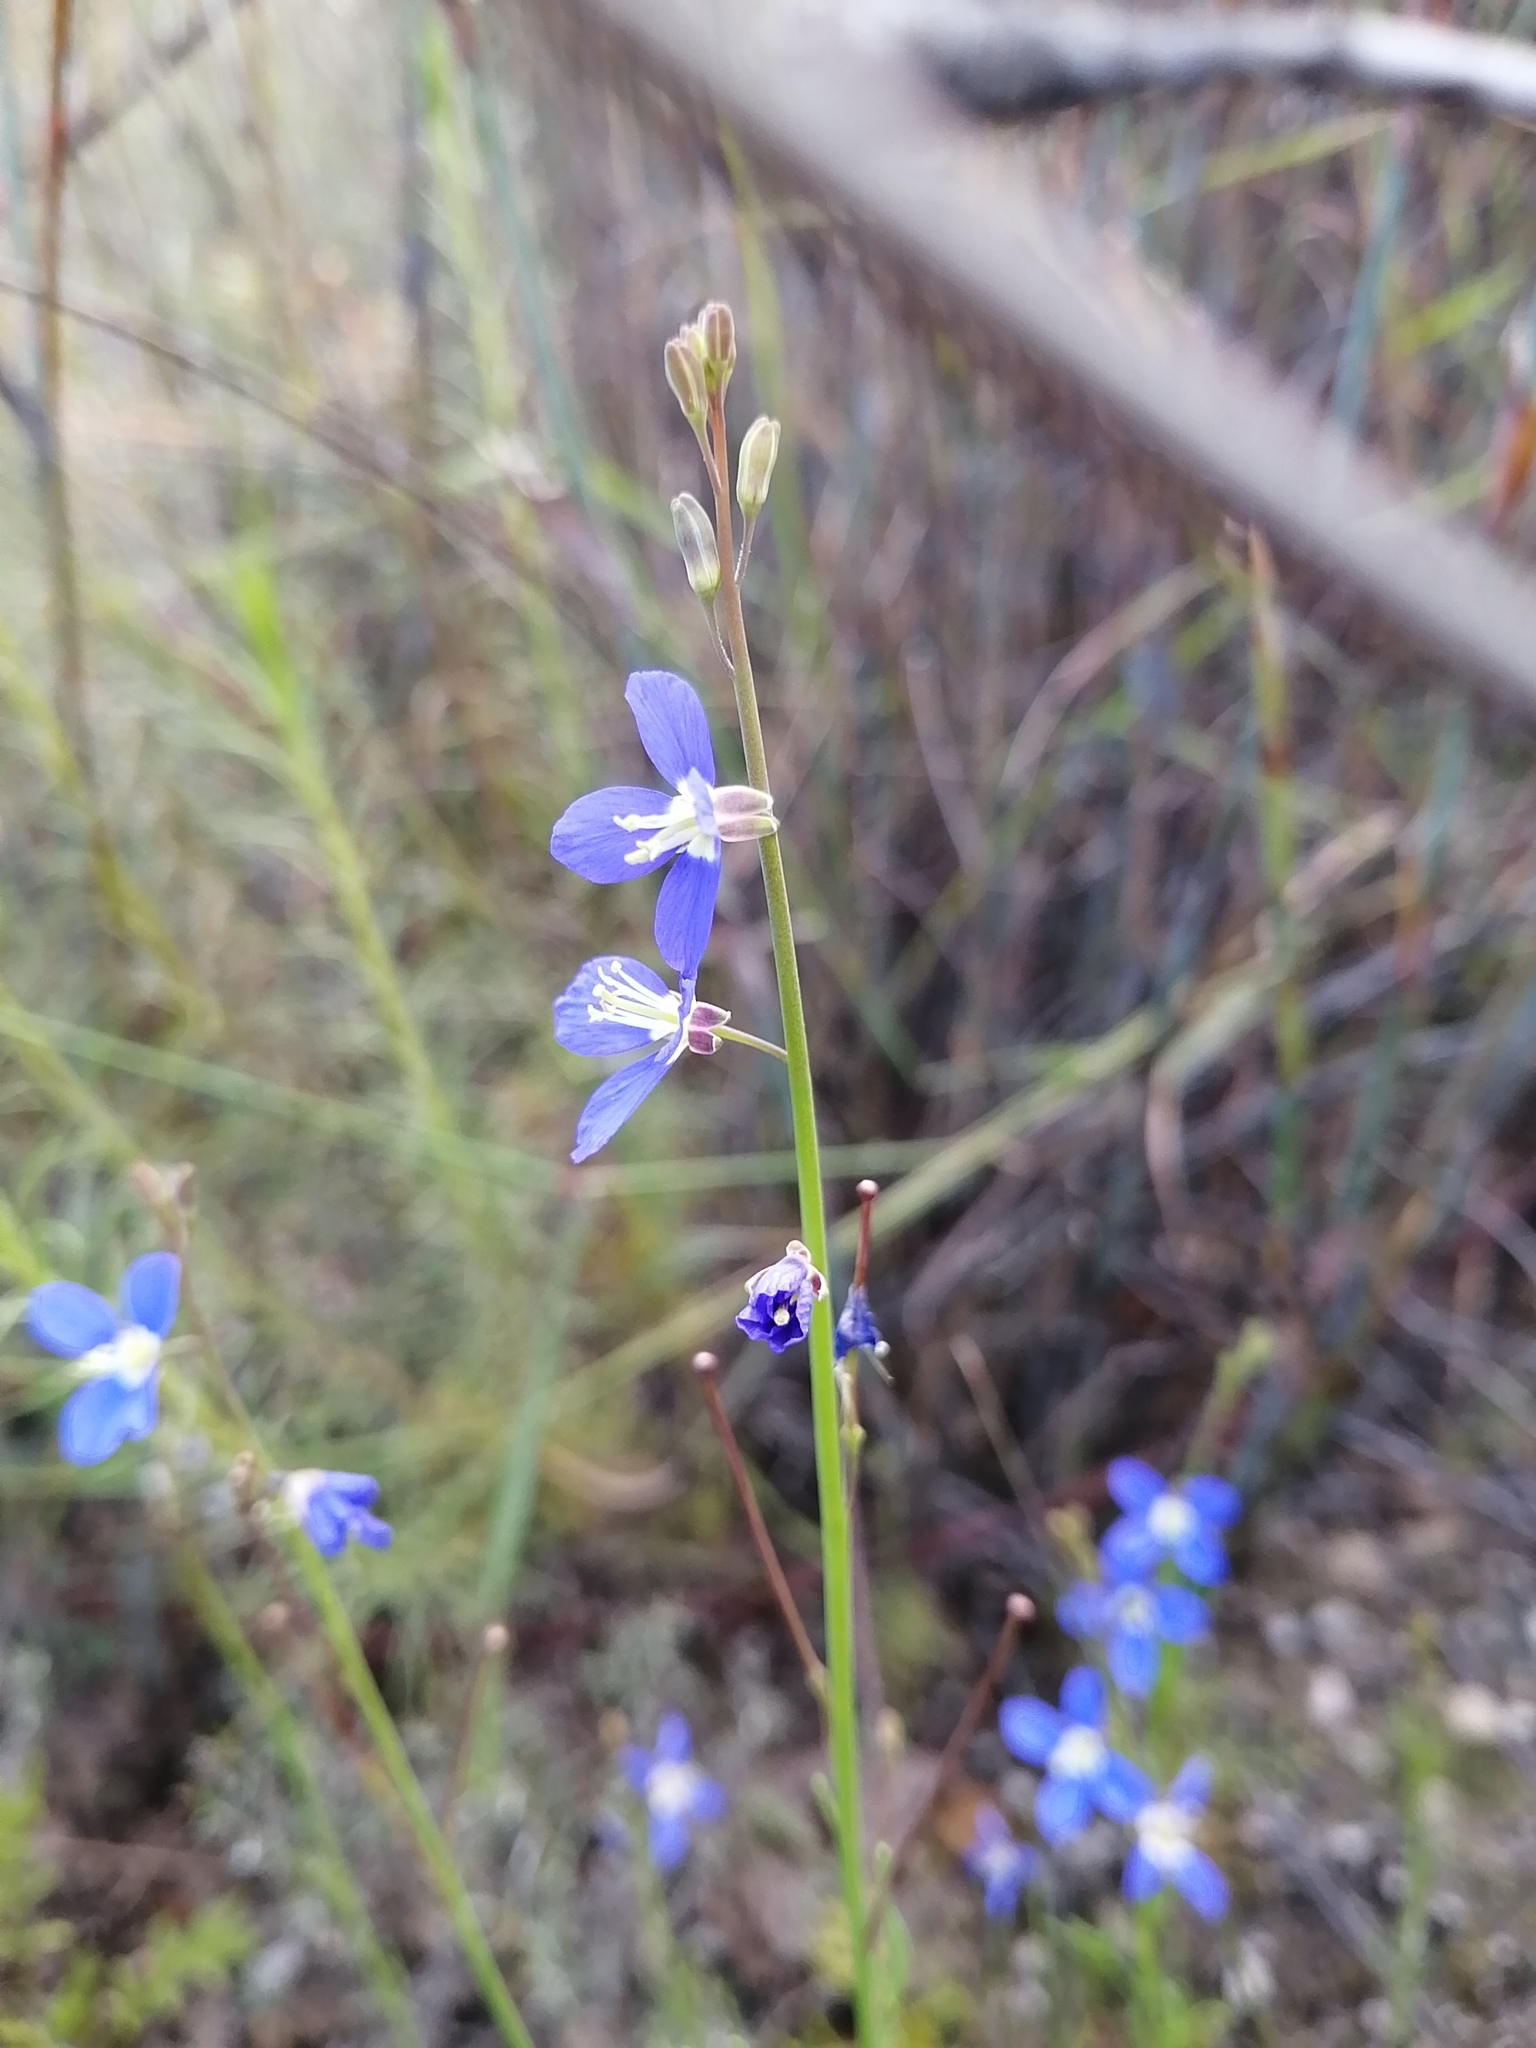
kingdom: Plantae
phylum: Tracheophyta
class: Magnoliopsida
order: Brassicales
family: Brassicaceae
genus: Heliophila
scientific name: Heliophila bulbostyla
